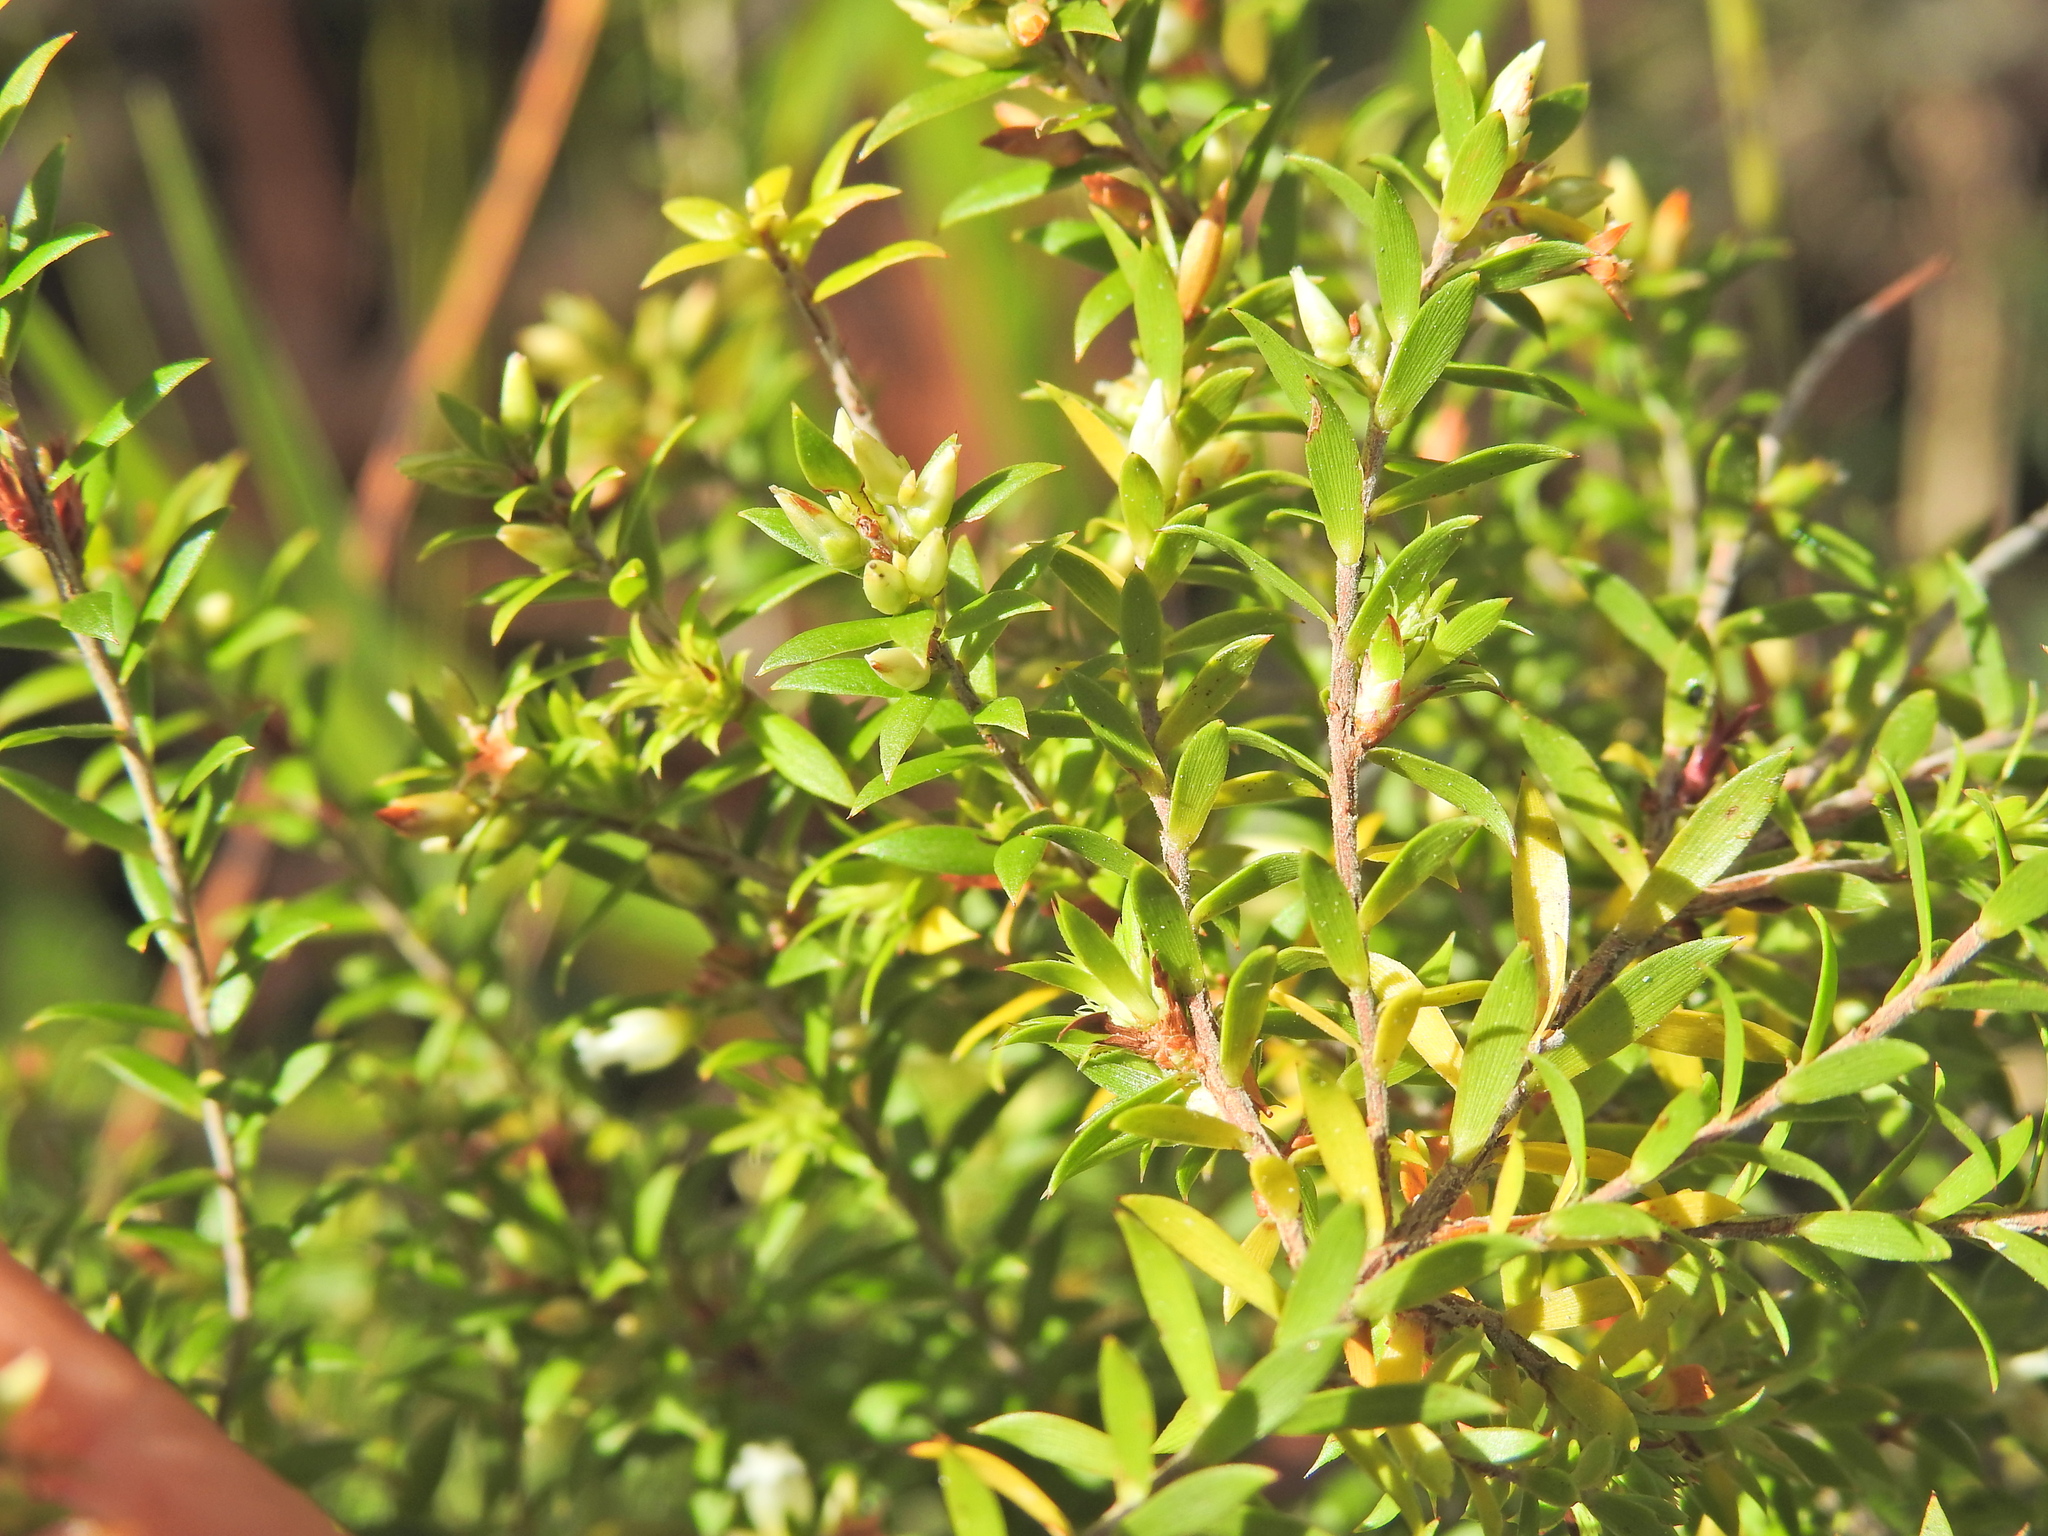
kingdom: Plantae
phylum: Tracheophyta
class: Magnoliopsida
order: Ericales
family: Ericaceae
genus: Styphelia
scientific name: Styphelia leptospermoides
